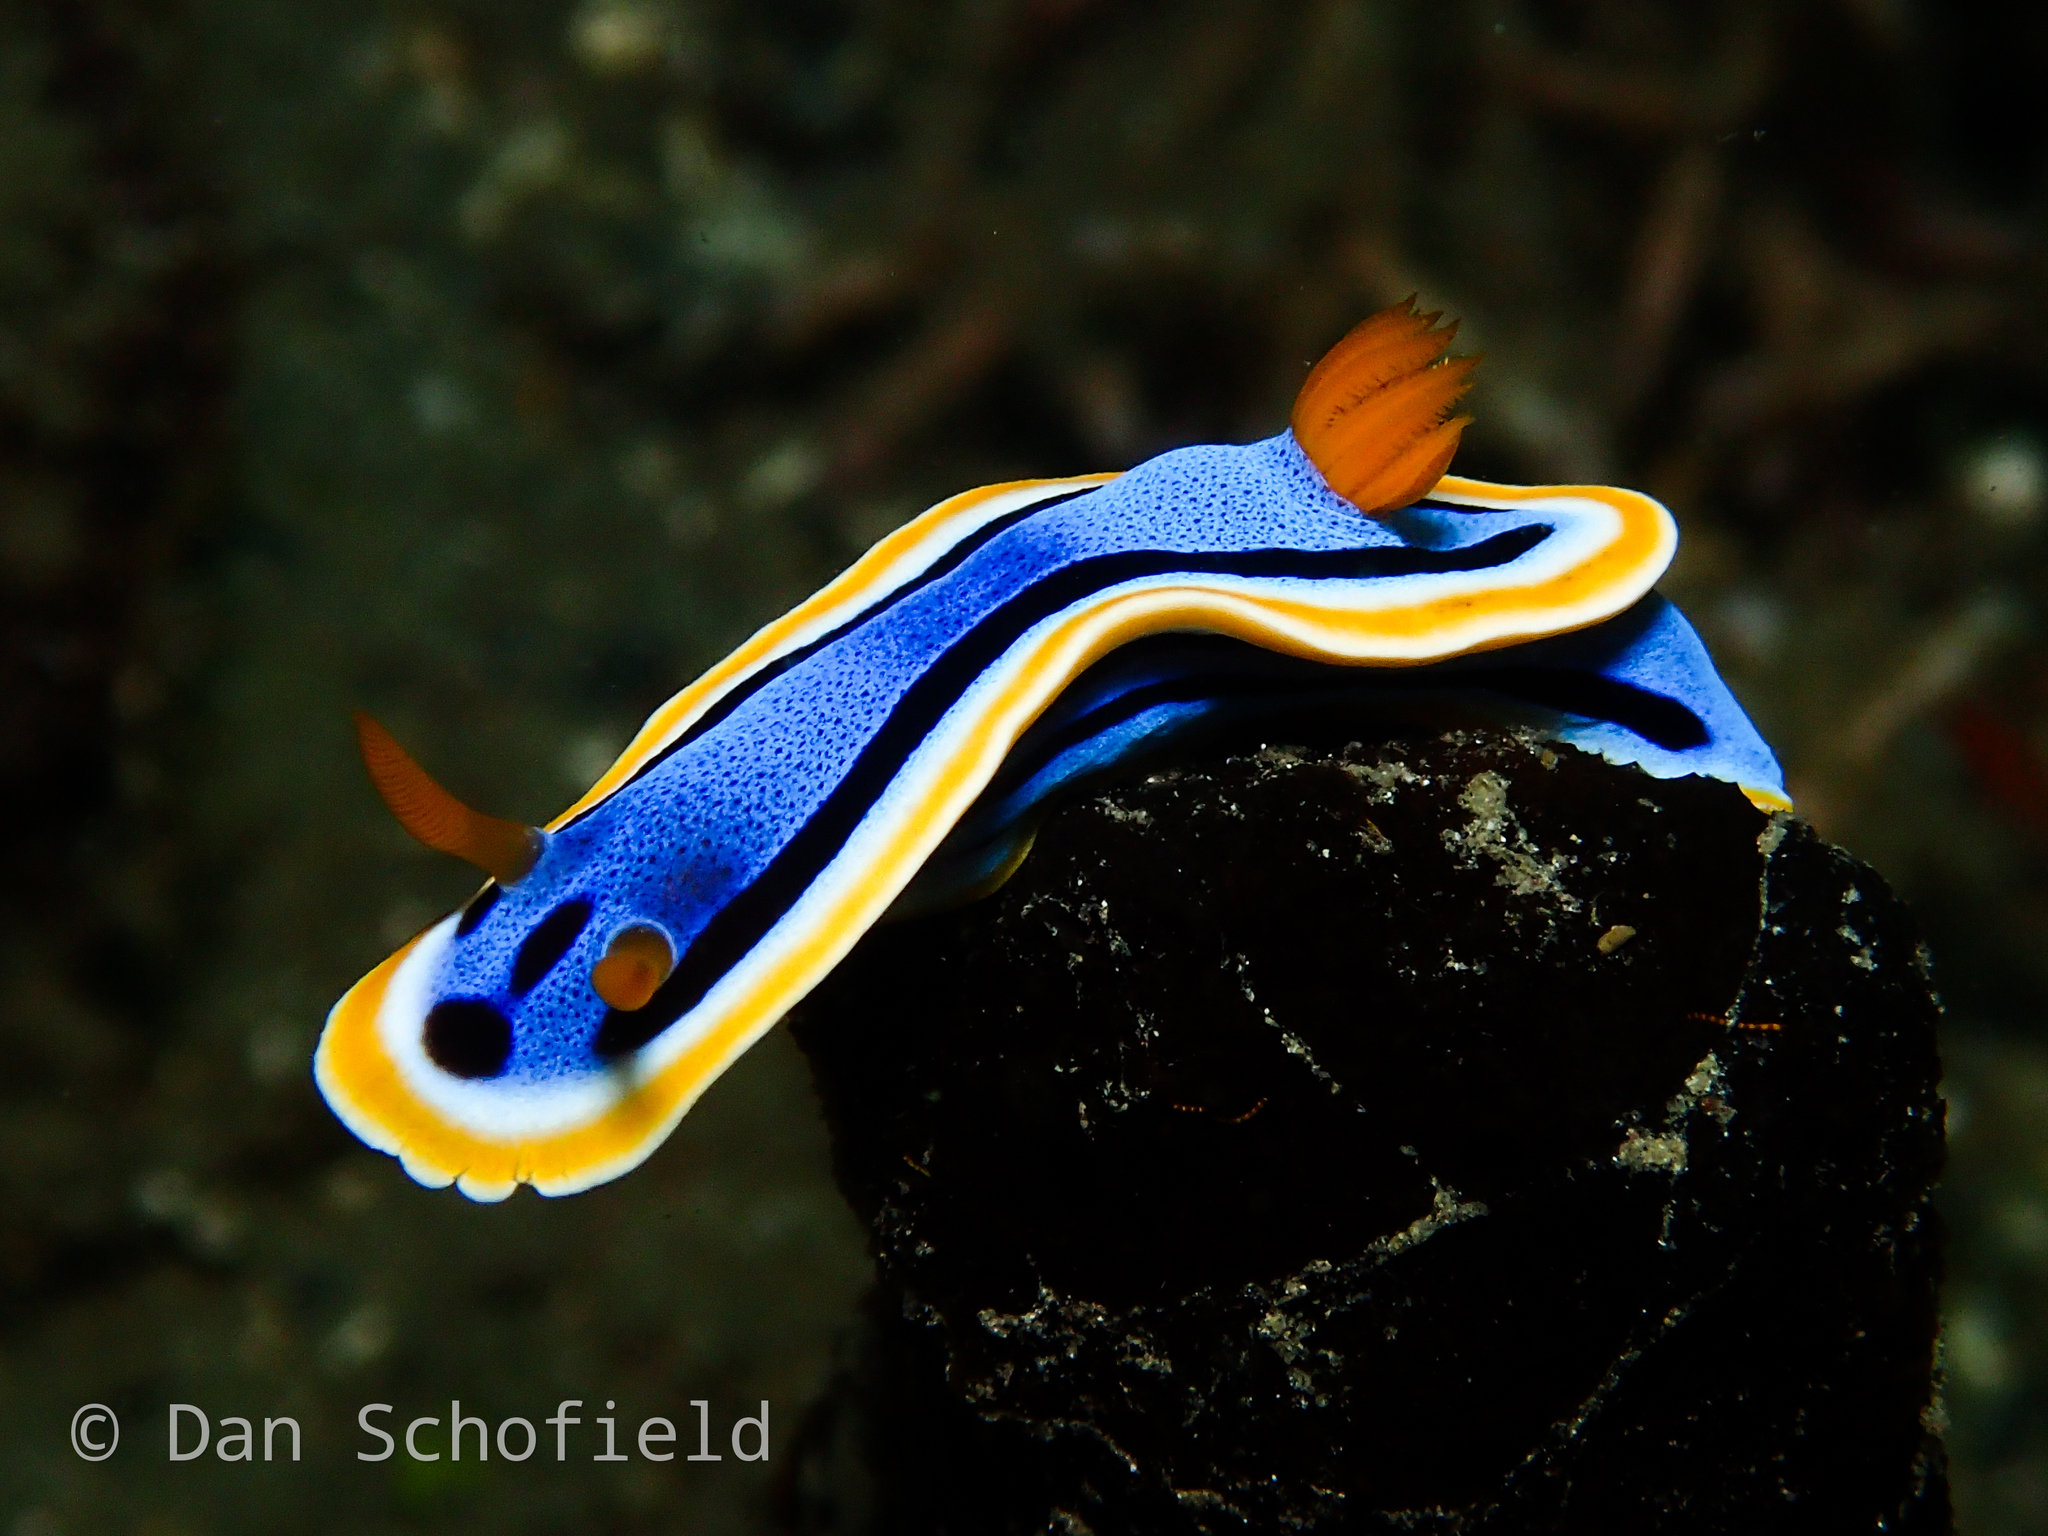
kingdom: Animalia
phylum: Mollusca
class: Gastropoda
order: Nudibranchia
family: Chromodorididae
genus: Chromodoris
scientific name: Chromodoris annae
